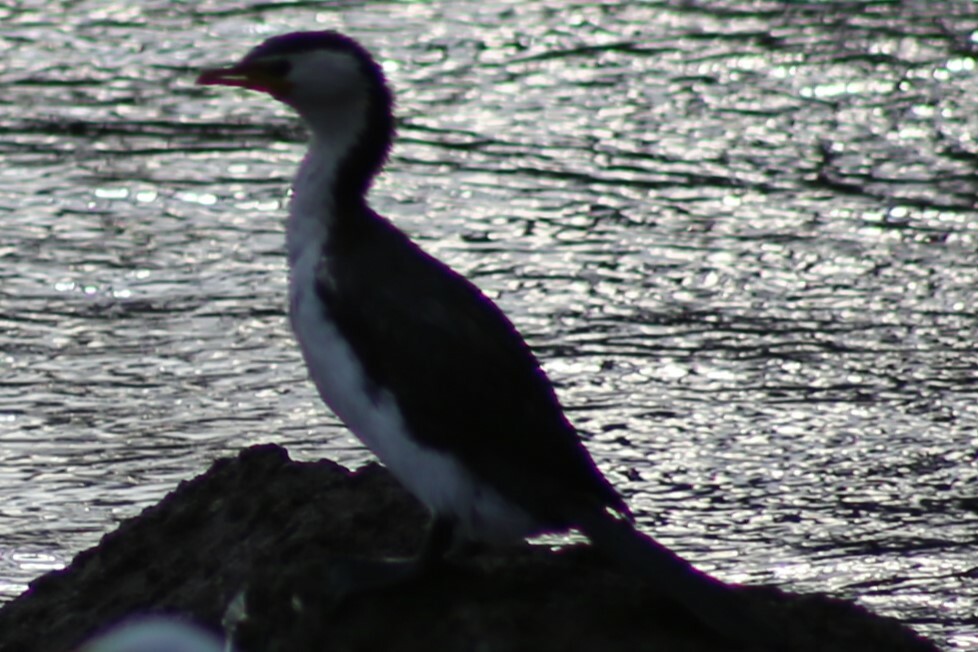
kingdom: Animalia
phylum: Chordata
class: Aves
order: Suliformes
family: Phalacrocoracidae
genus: Microcarbo
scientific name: Microcarbo melanoleucos
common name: Little pied cormorant
